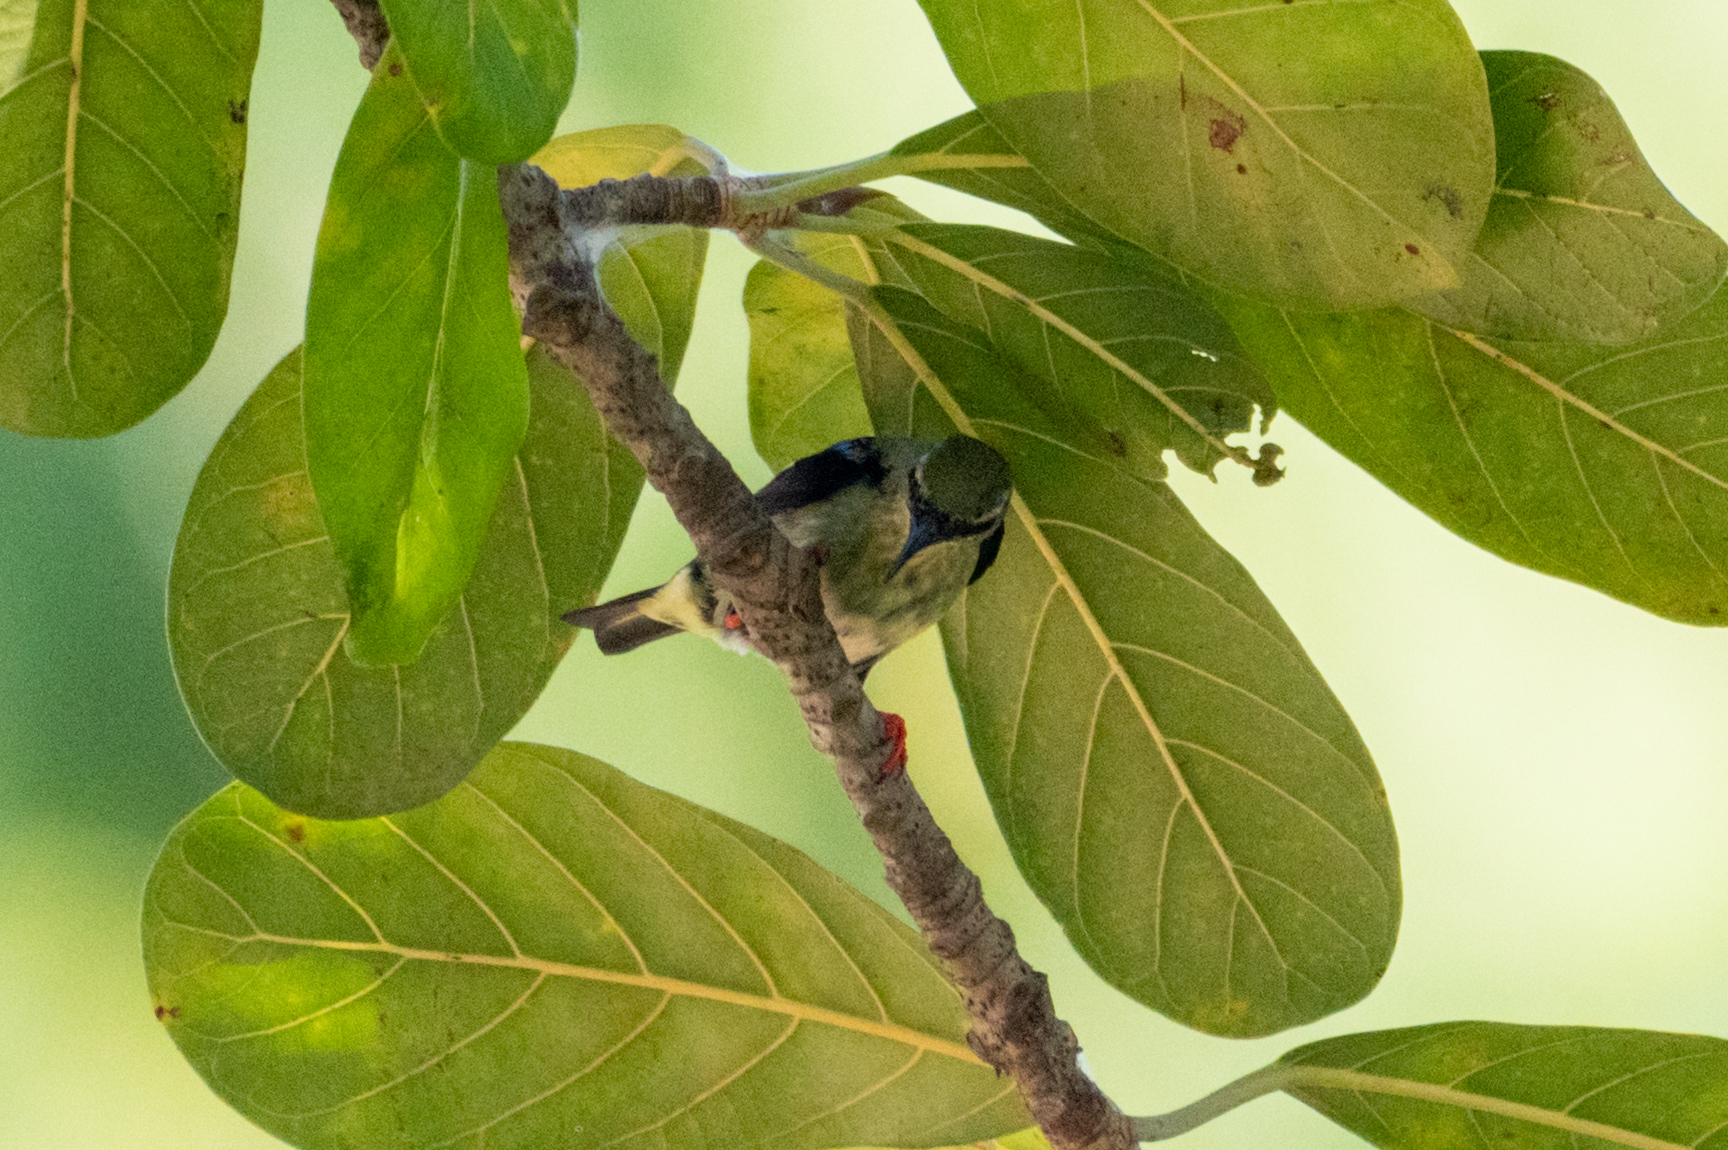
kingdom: Animalia
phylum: Chordata
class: Aves
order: Passeriformes
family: Thraupidae
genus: Cyanerpes
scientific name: Cyanerpes cyaneus
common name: Red-legged honeycreeper
